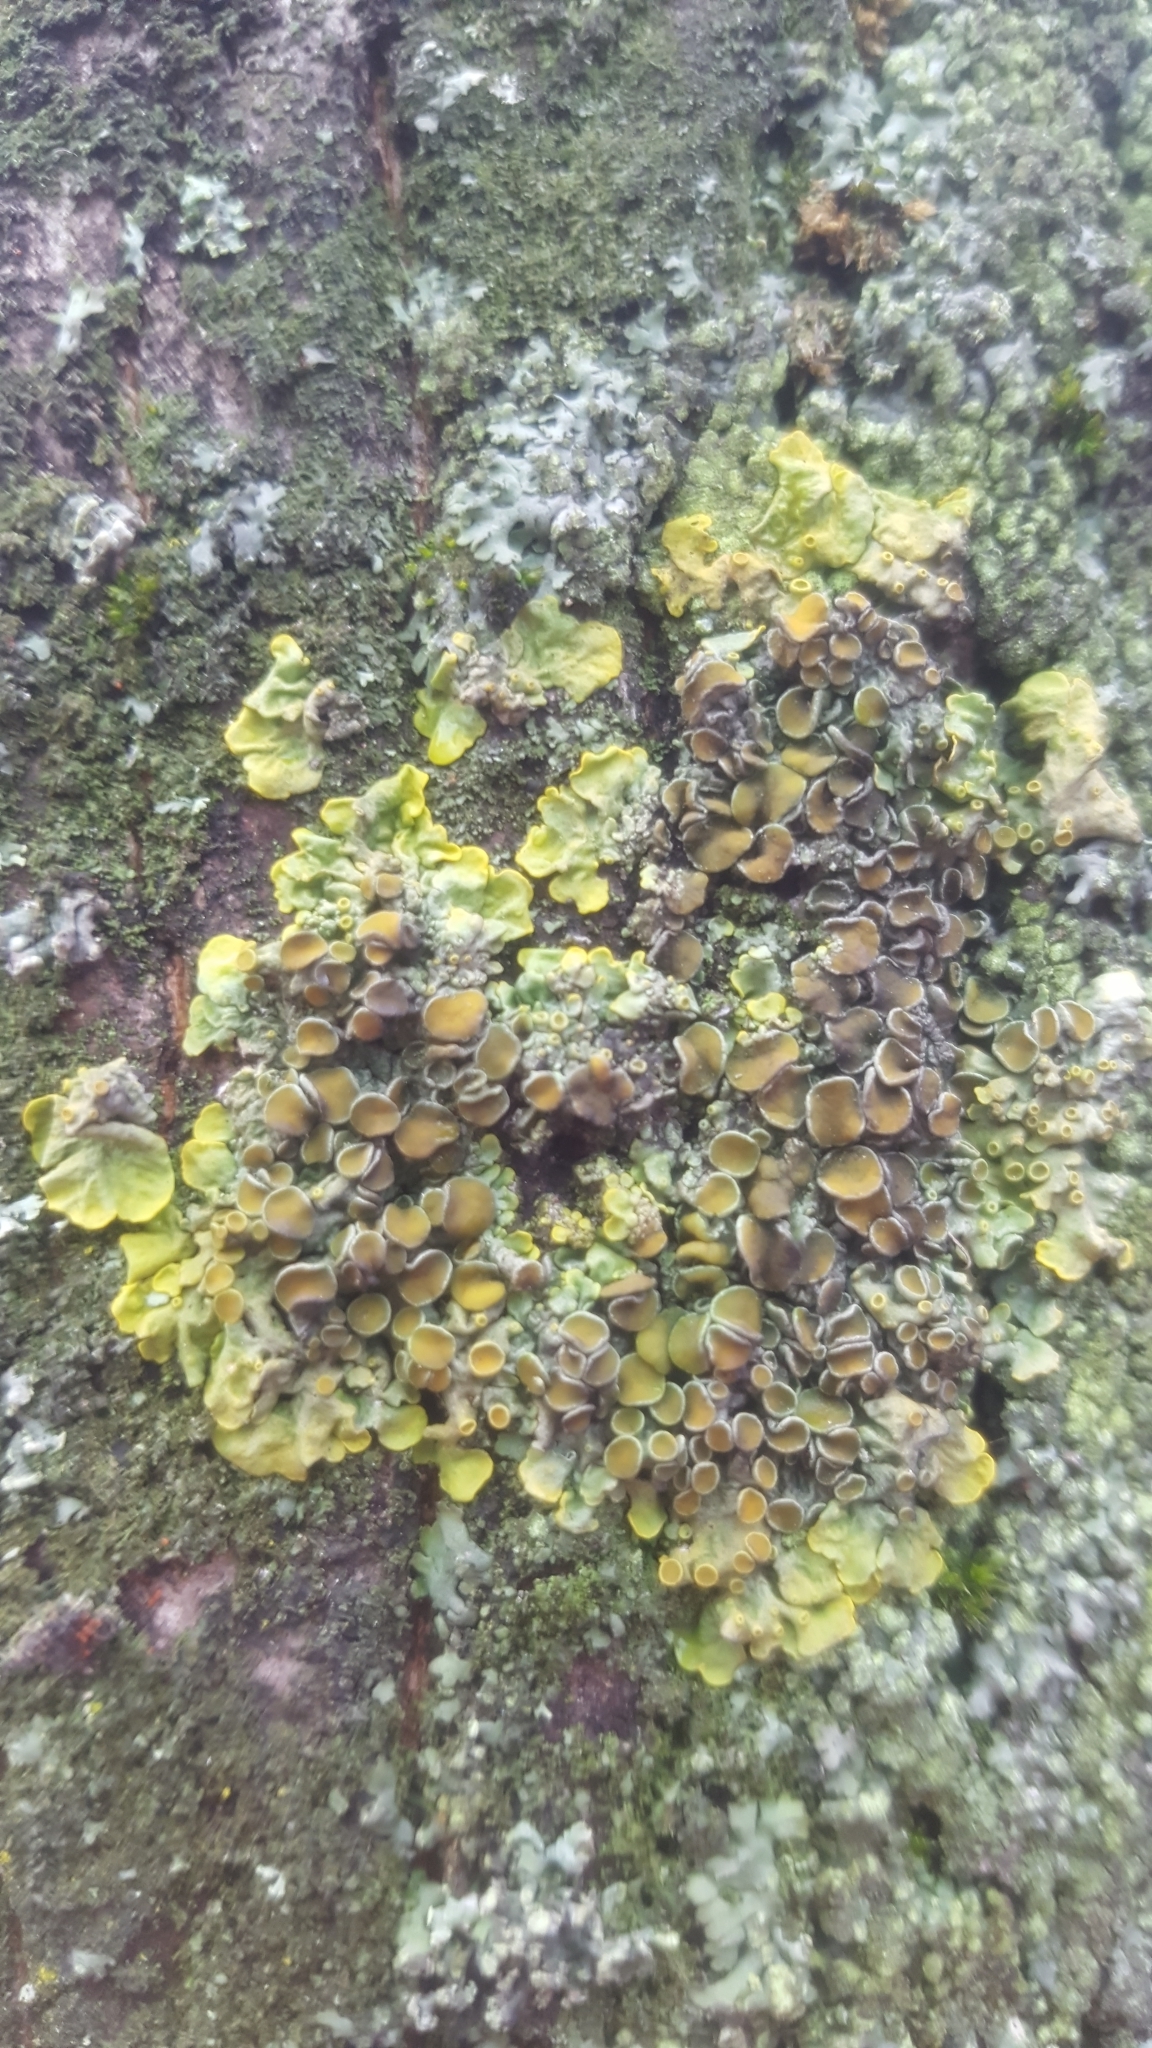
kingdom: Fungi
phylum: Ascomycota
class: Lecanoromycetes
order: Teloschistales
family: Teloschistaceae
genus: Xanthoria
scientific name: Xanthoria parietina
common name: Common orange lichen
